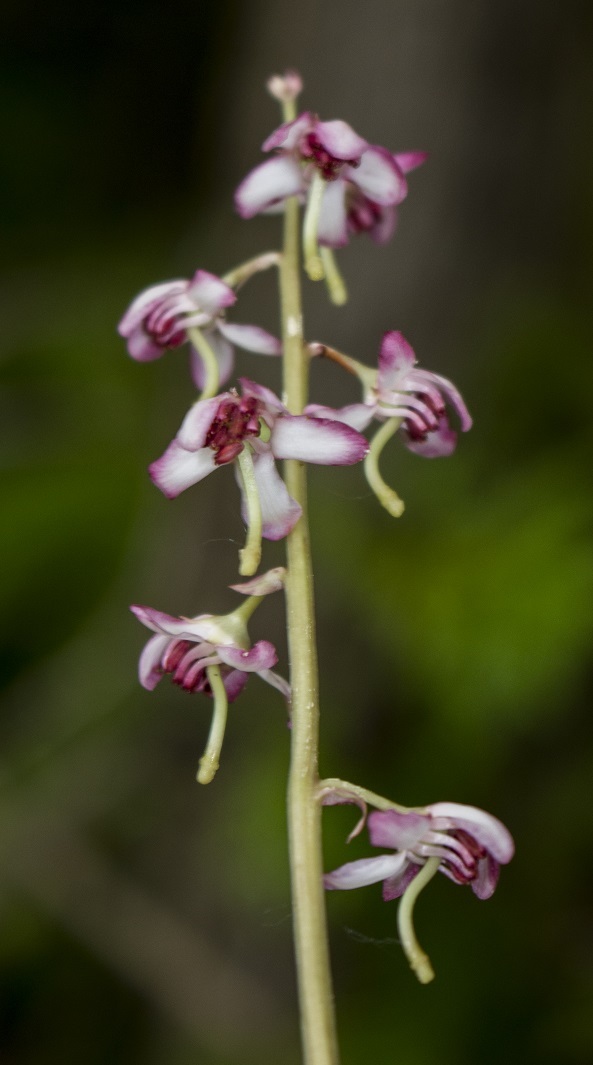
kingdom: Plantae
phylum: Tracheophyta
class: Magnoliopsida
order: Ericales
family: Ericaceae
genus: Pyrola
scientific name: Pyrola asarifolia
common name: Bog wintergreen
